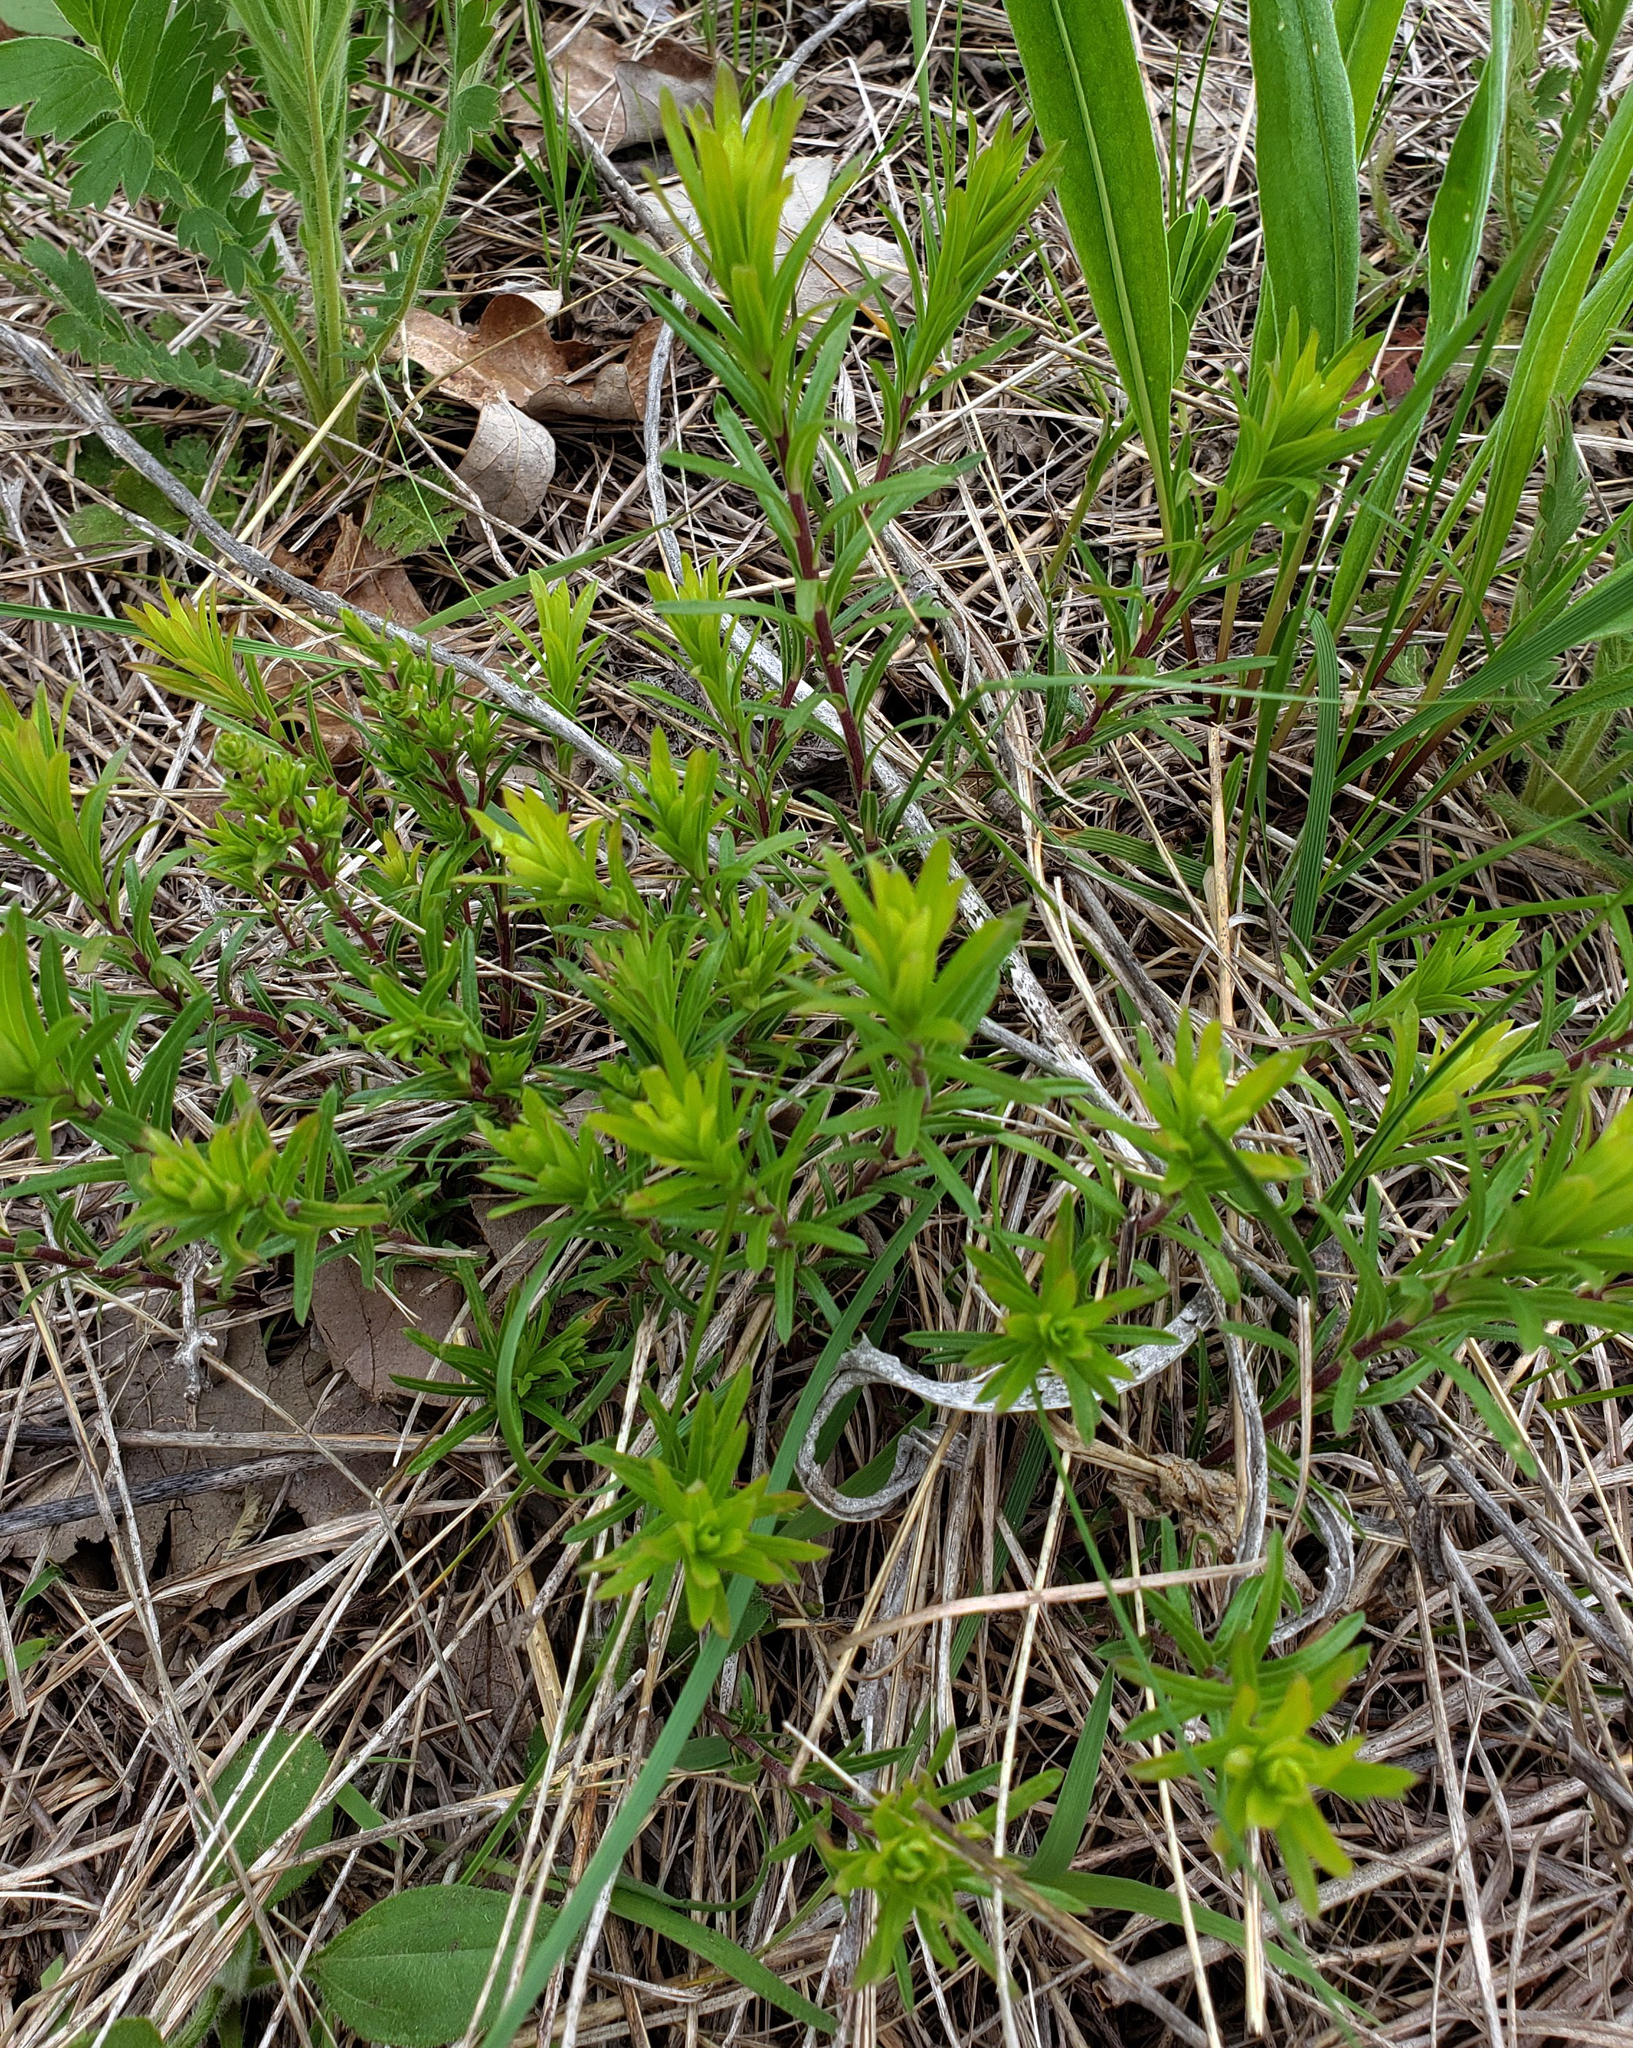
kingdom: Plantae
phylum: Tracheophyta
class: Magnoliopsida
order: Asterales
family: Asteraceae
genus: Ionactis
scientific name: Ionactis linariifolia
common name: Flax-leaf aster
